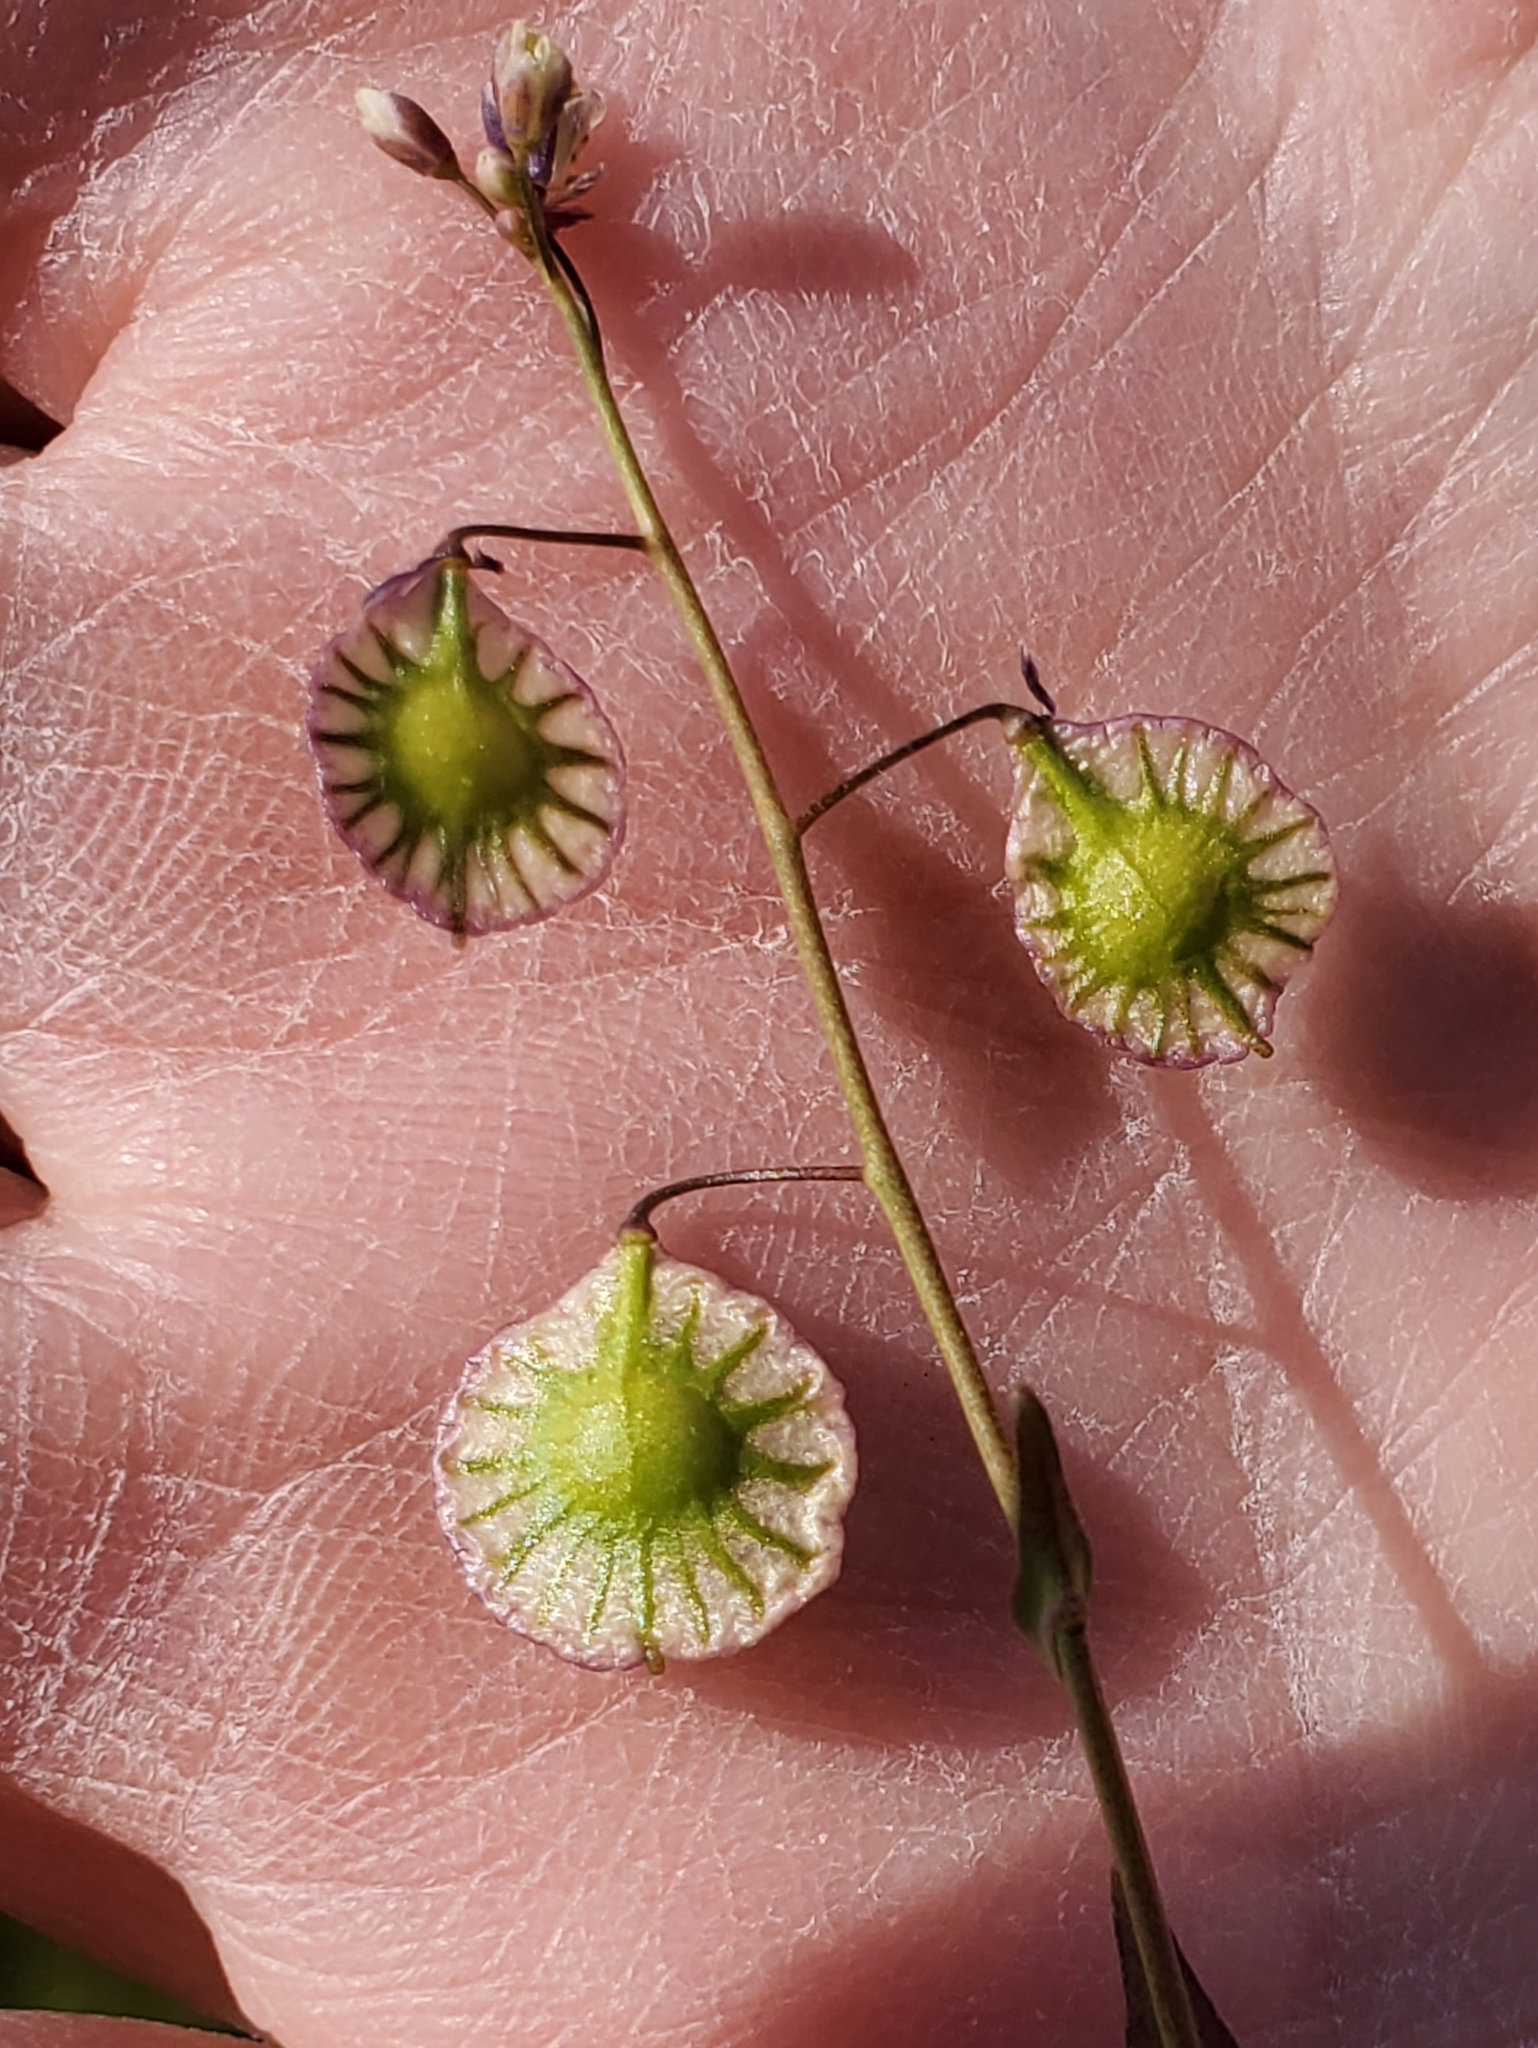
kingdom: Plantae
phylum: Tracheophyta
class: Magnoliopsida
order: Brassicales
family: Brassicaceae
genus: Thysanocarpus
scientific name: Thysanocarpus radians
